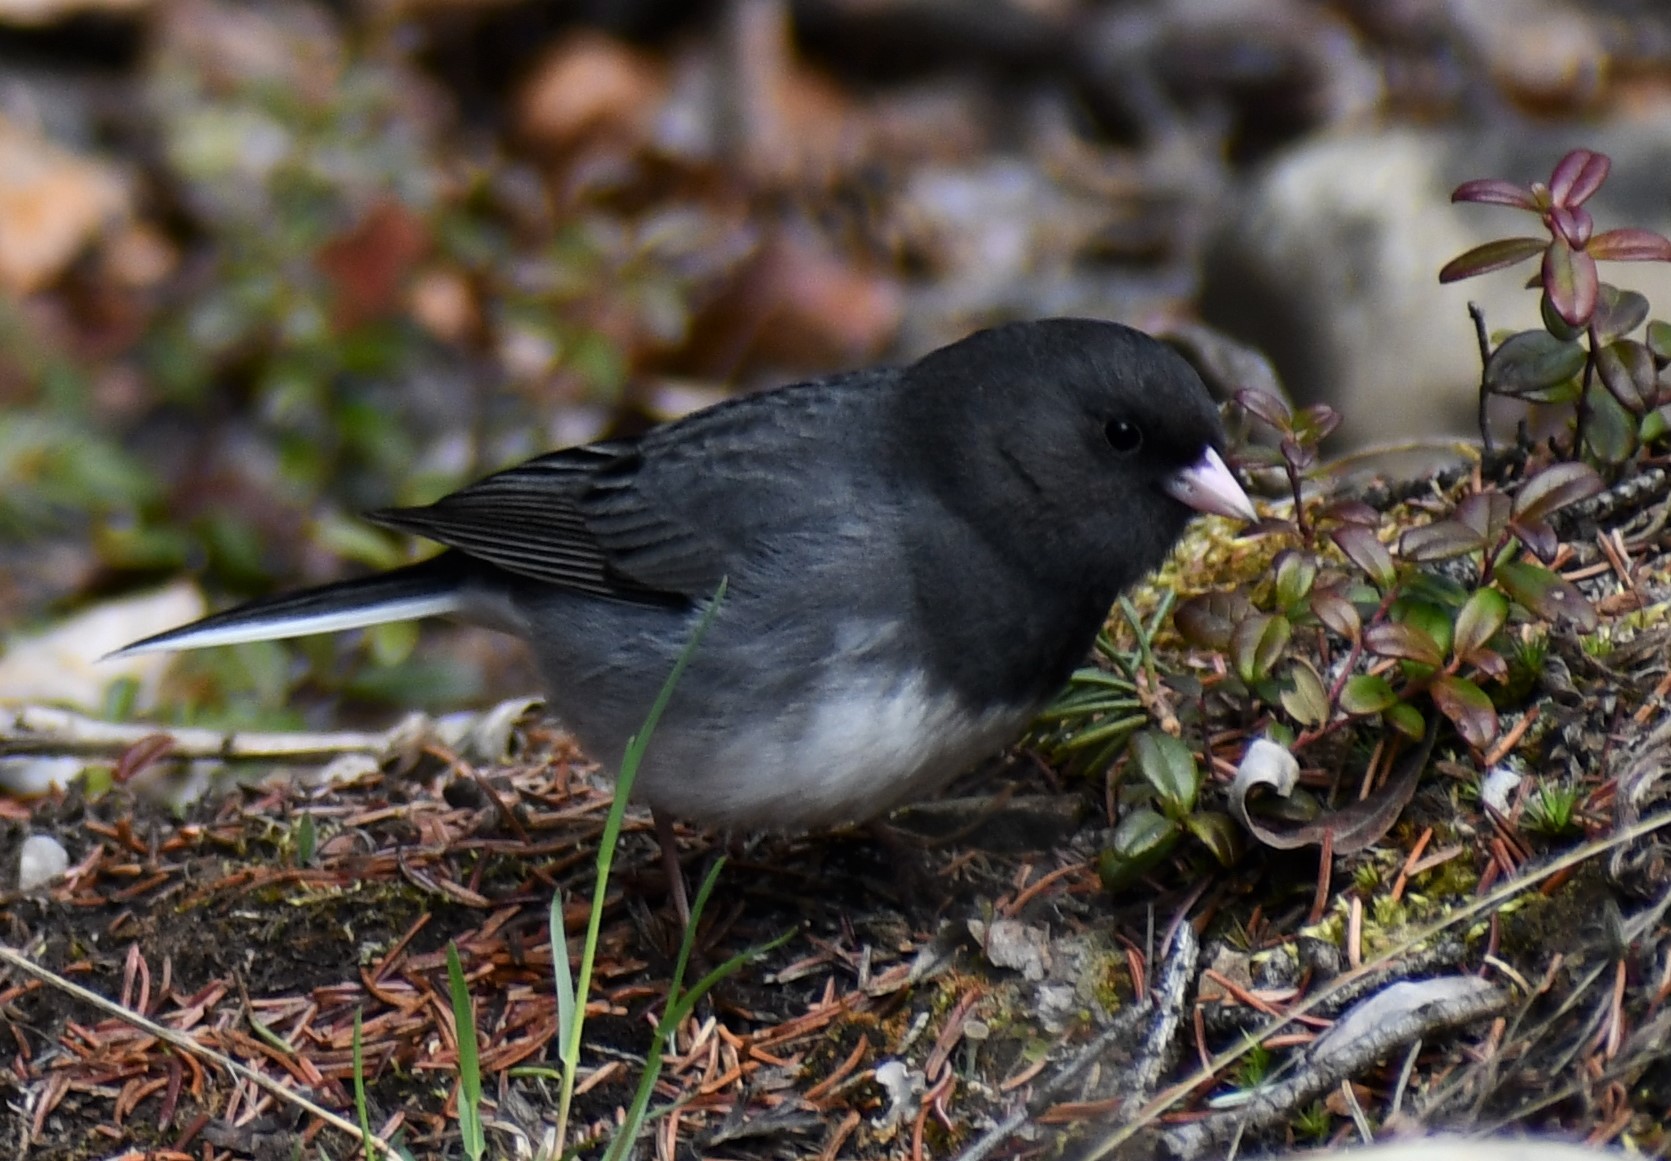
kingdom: Animalia
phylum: Chordata
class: Aves
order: Passeriformes
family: Passerellidae
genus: Junco
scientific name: Junco hyemalis
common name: Dark-eyed junco
